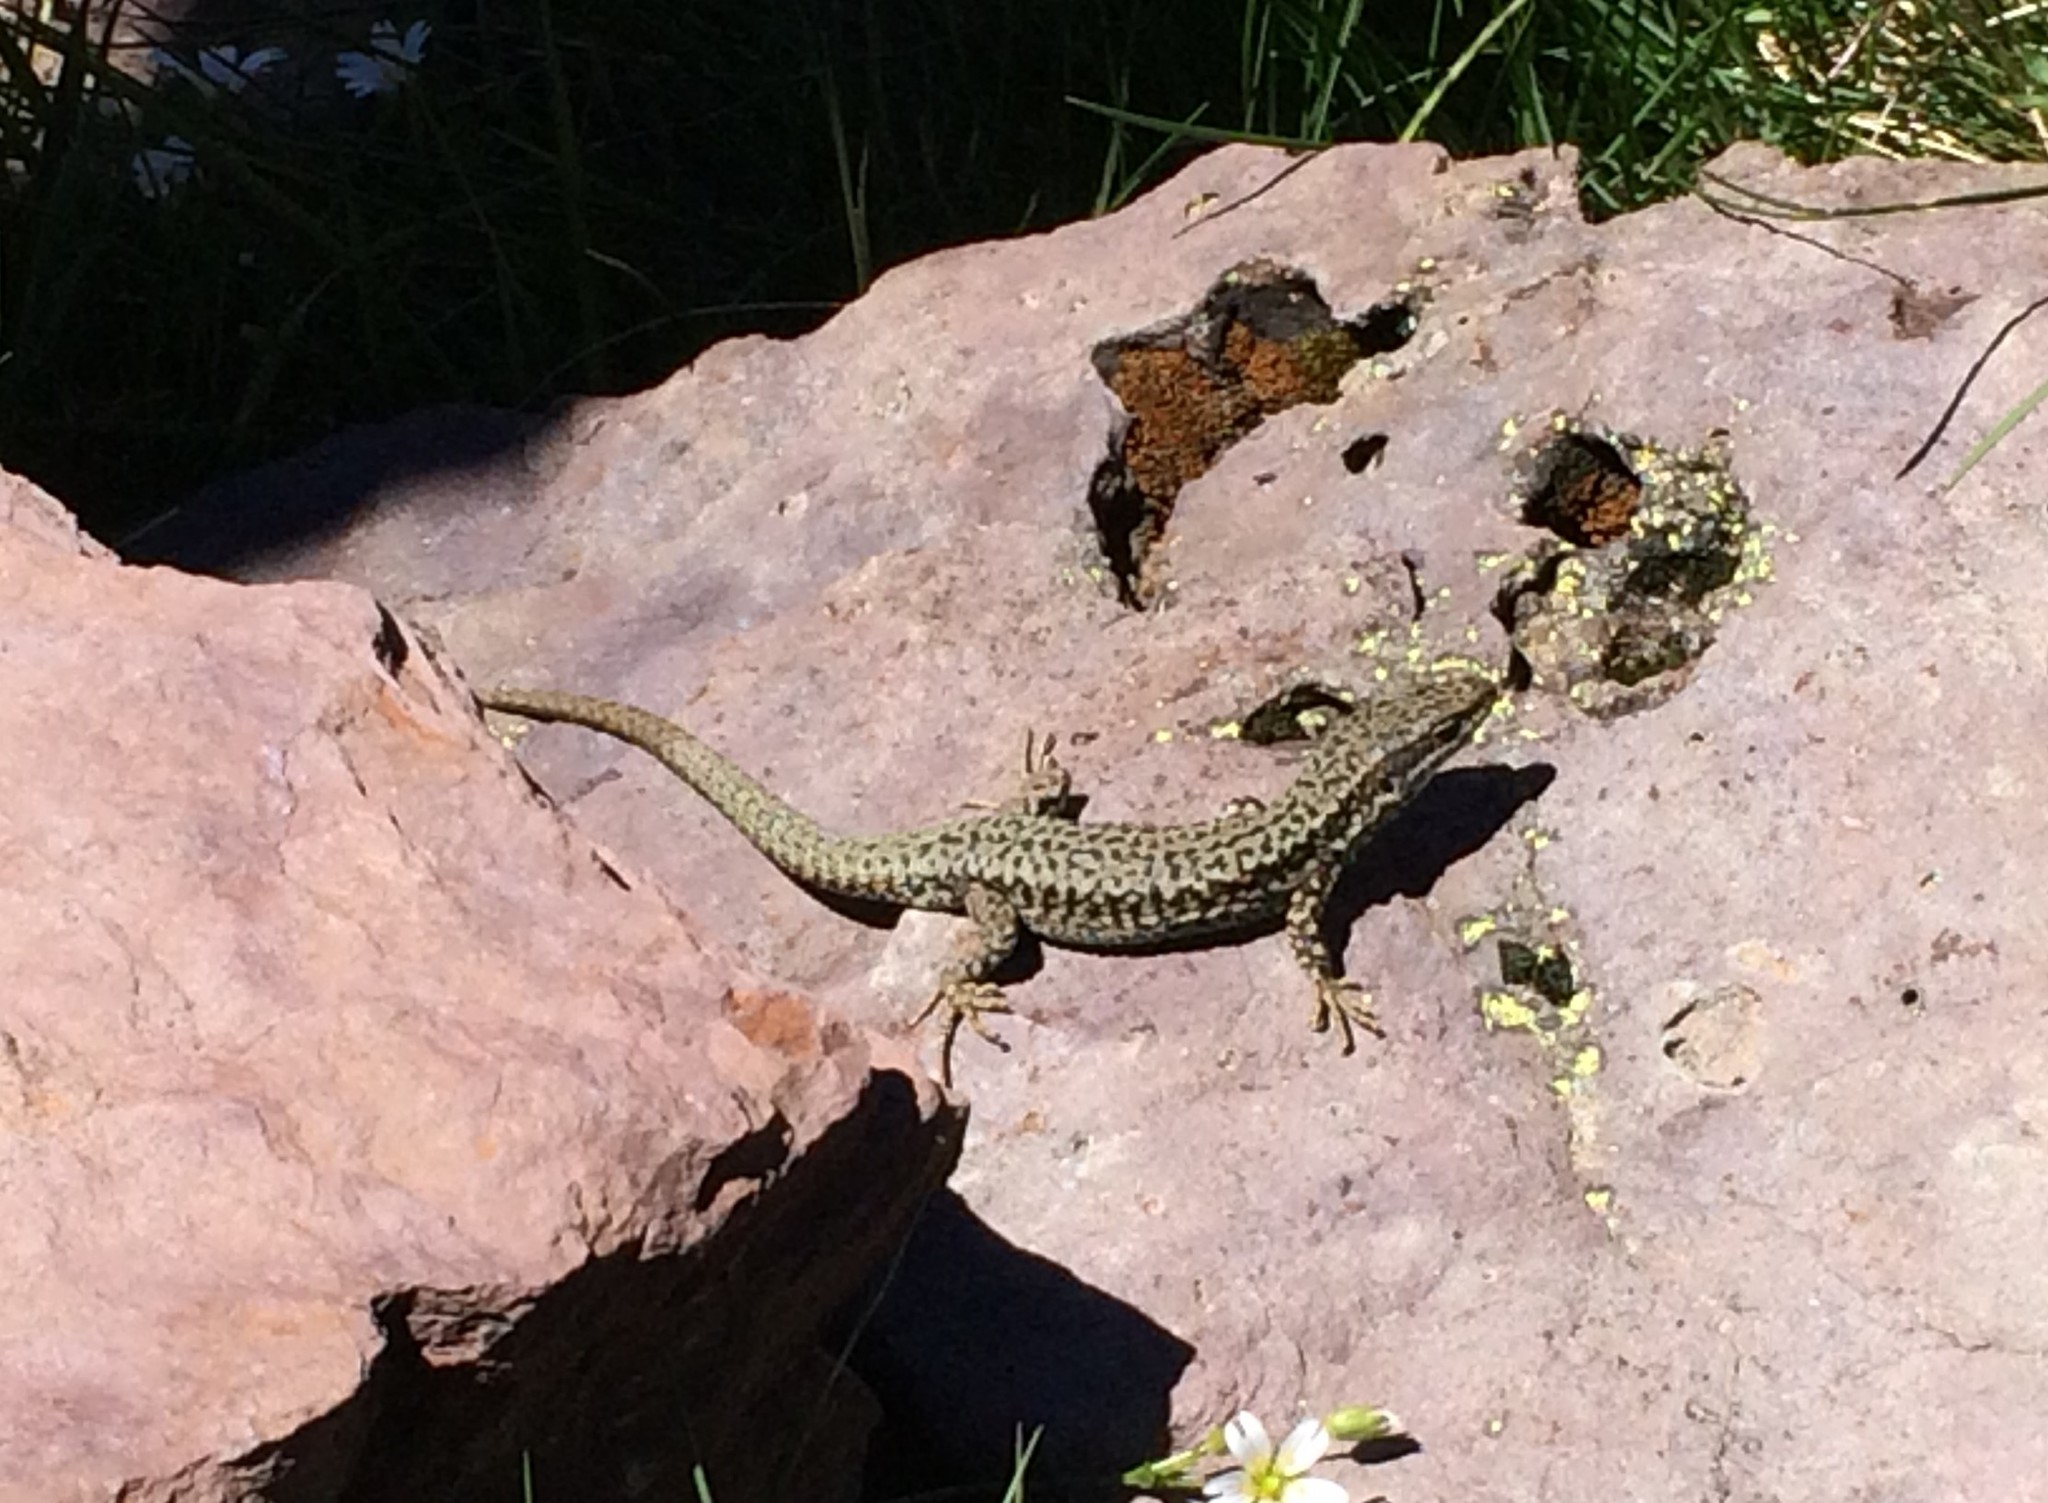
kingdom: Animalia
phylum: Chordata
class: Squamata
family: Lacertidae
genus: Podarcis
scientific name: Podarcis muralis
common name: Common wall lizard
